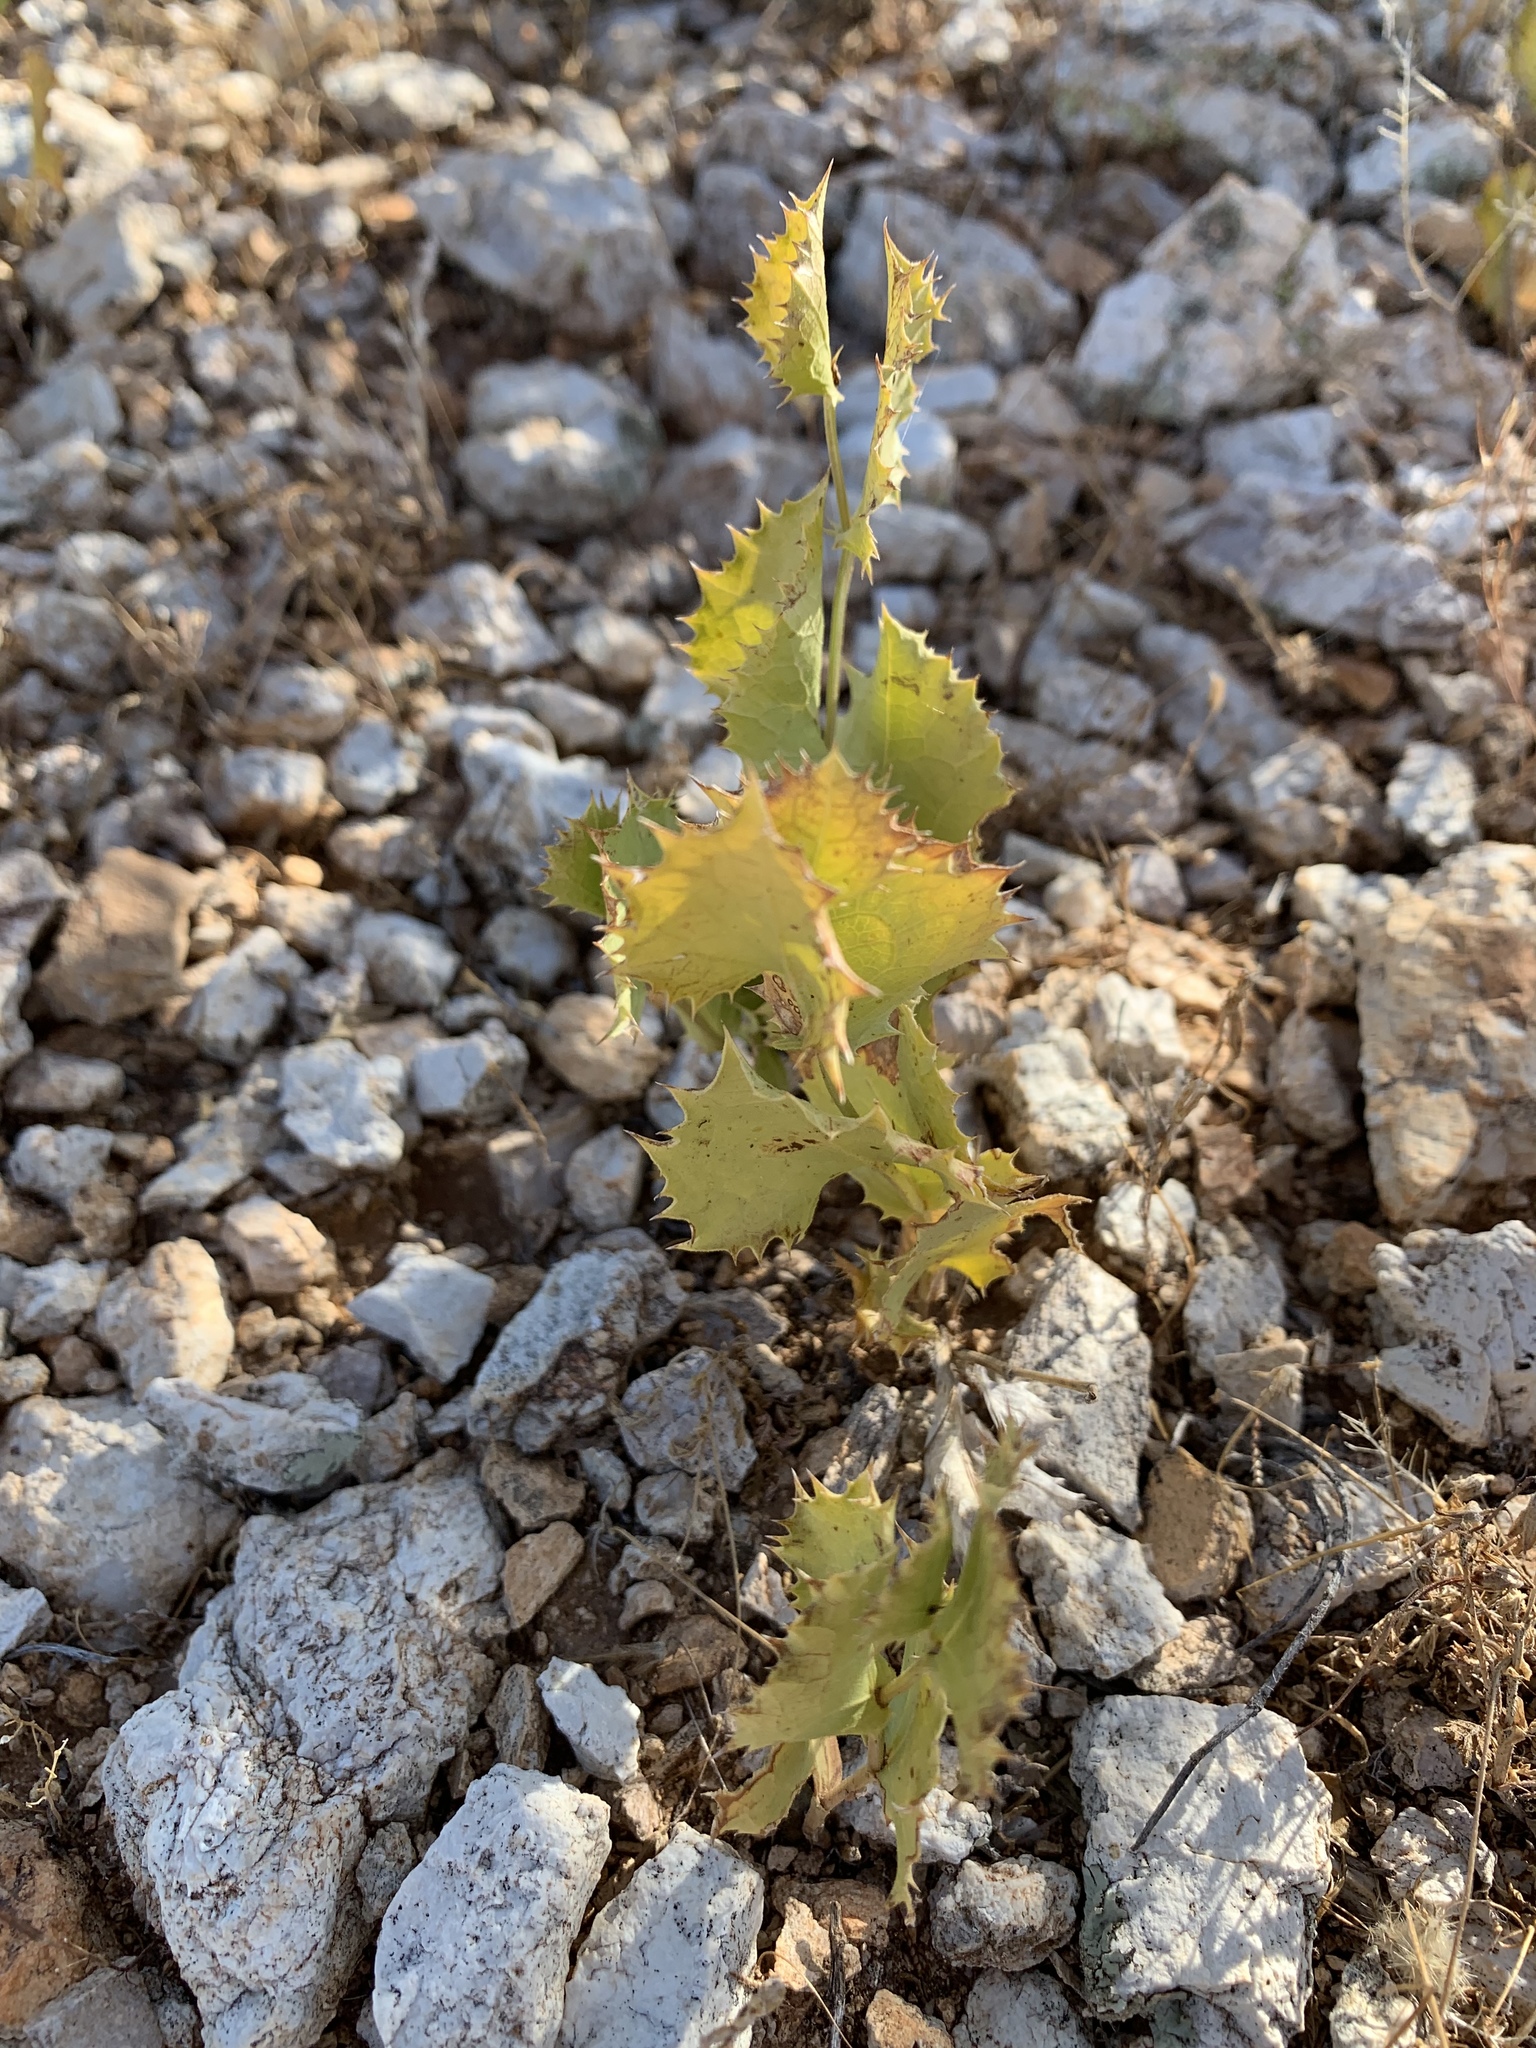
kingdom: Plantae
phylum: Tracheophyta
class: Magnoliopsida
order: Asterales
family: Asteraceae
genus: Acourtia
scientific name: Acourtia nana
